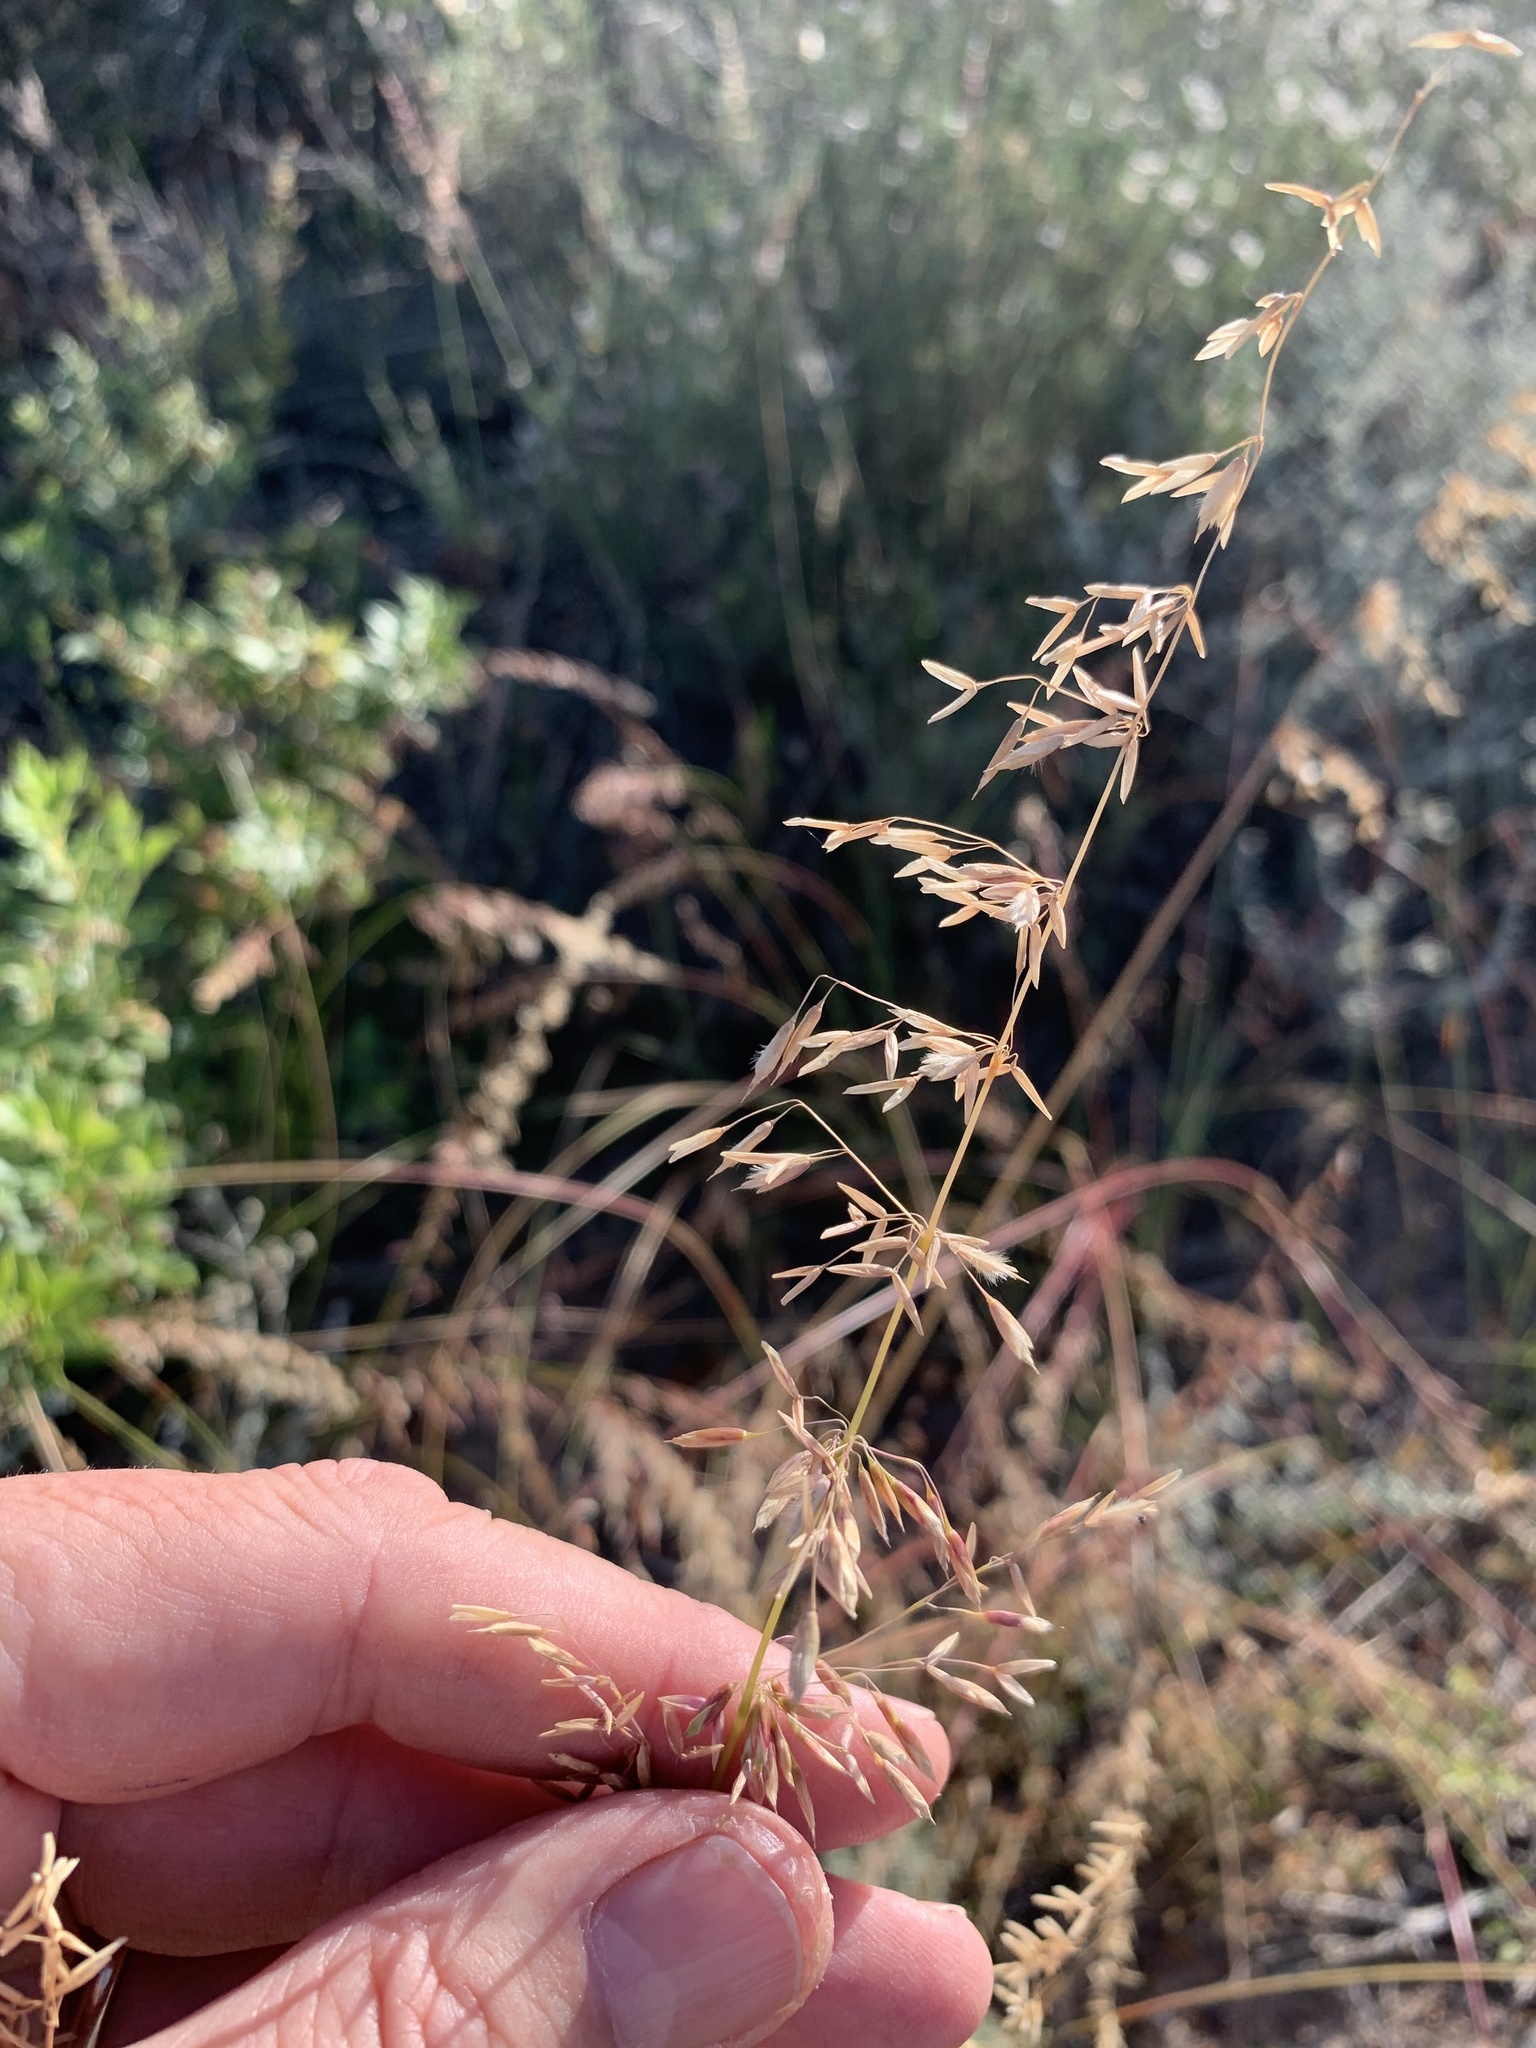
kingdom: Plantae
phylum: Tracheophyta
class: Liliopsida
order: Poales
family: Poaceae
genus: Ehrharta
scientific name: Ehrharta calycina
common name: Perennial veldtgrass
